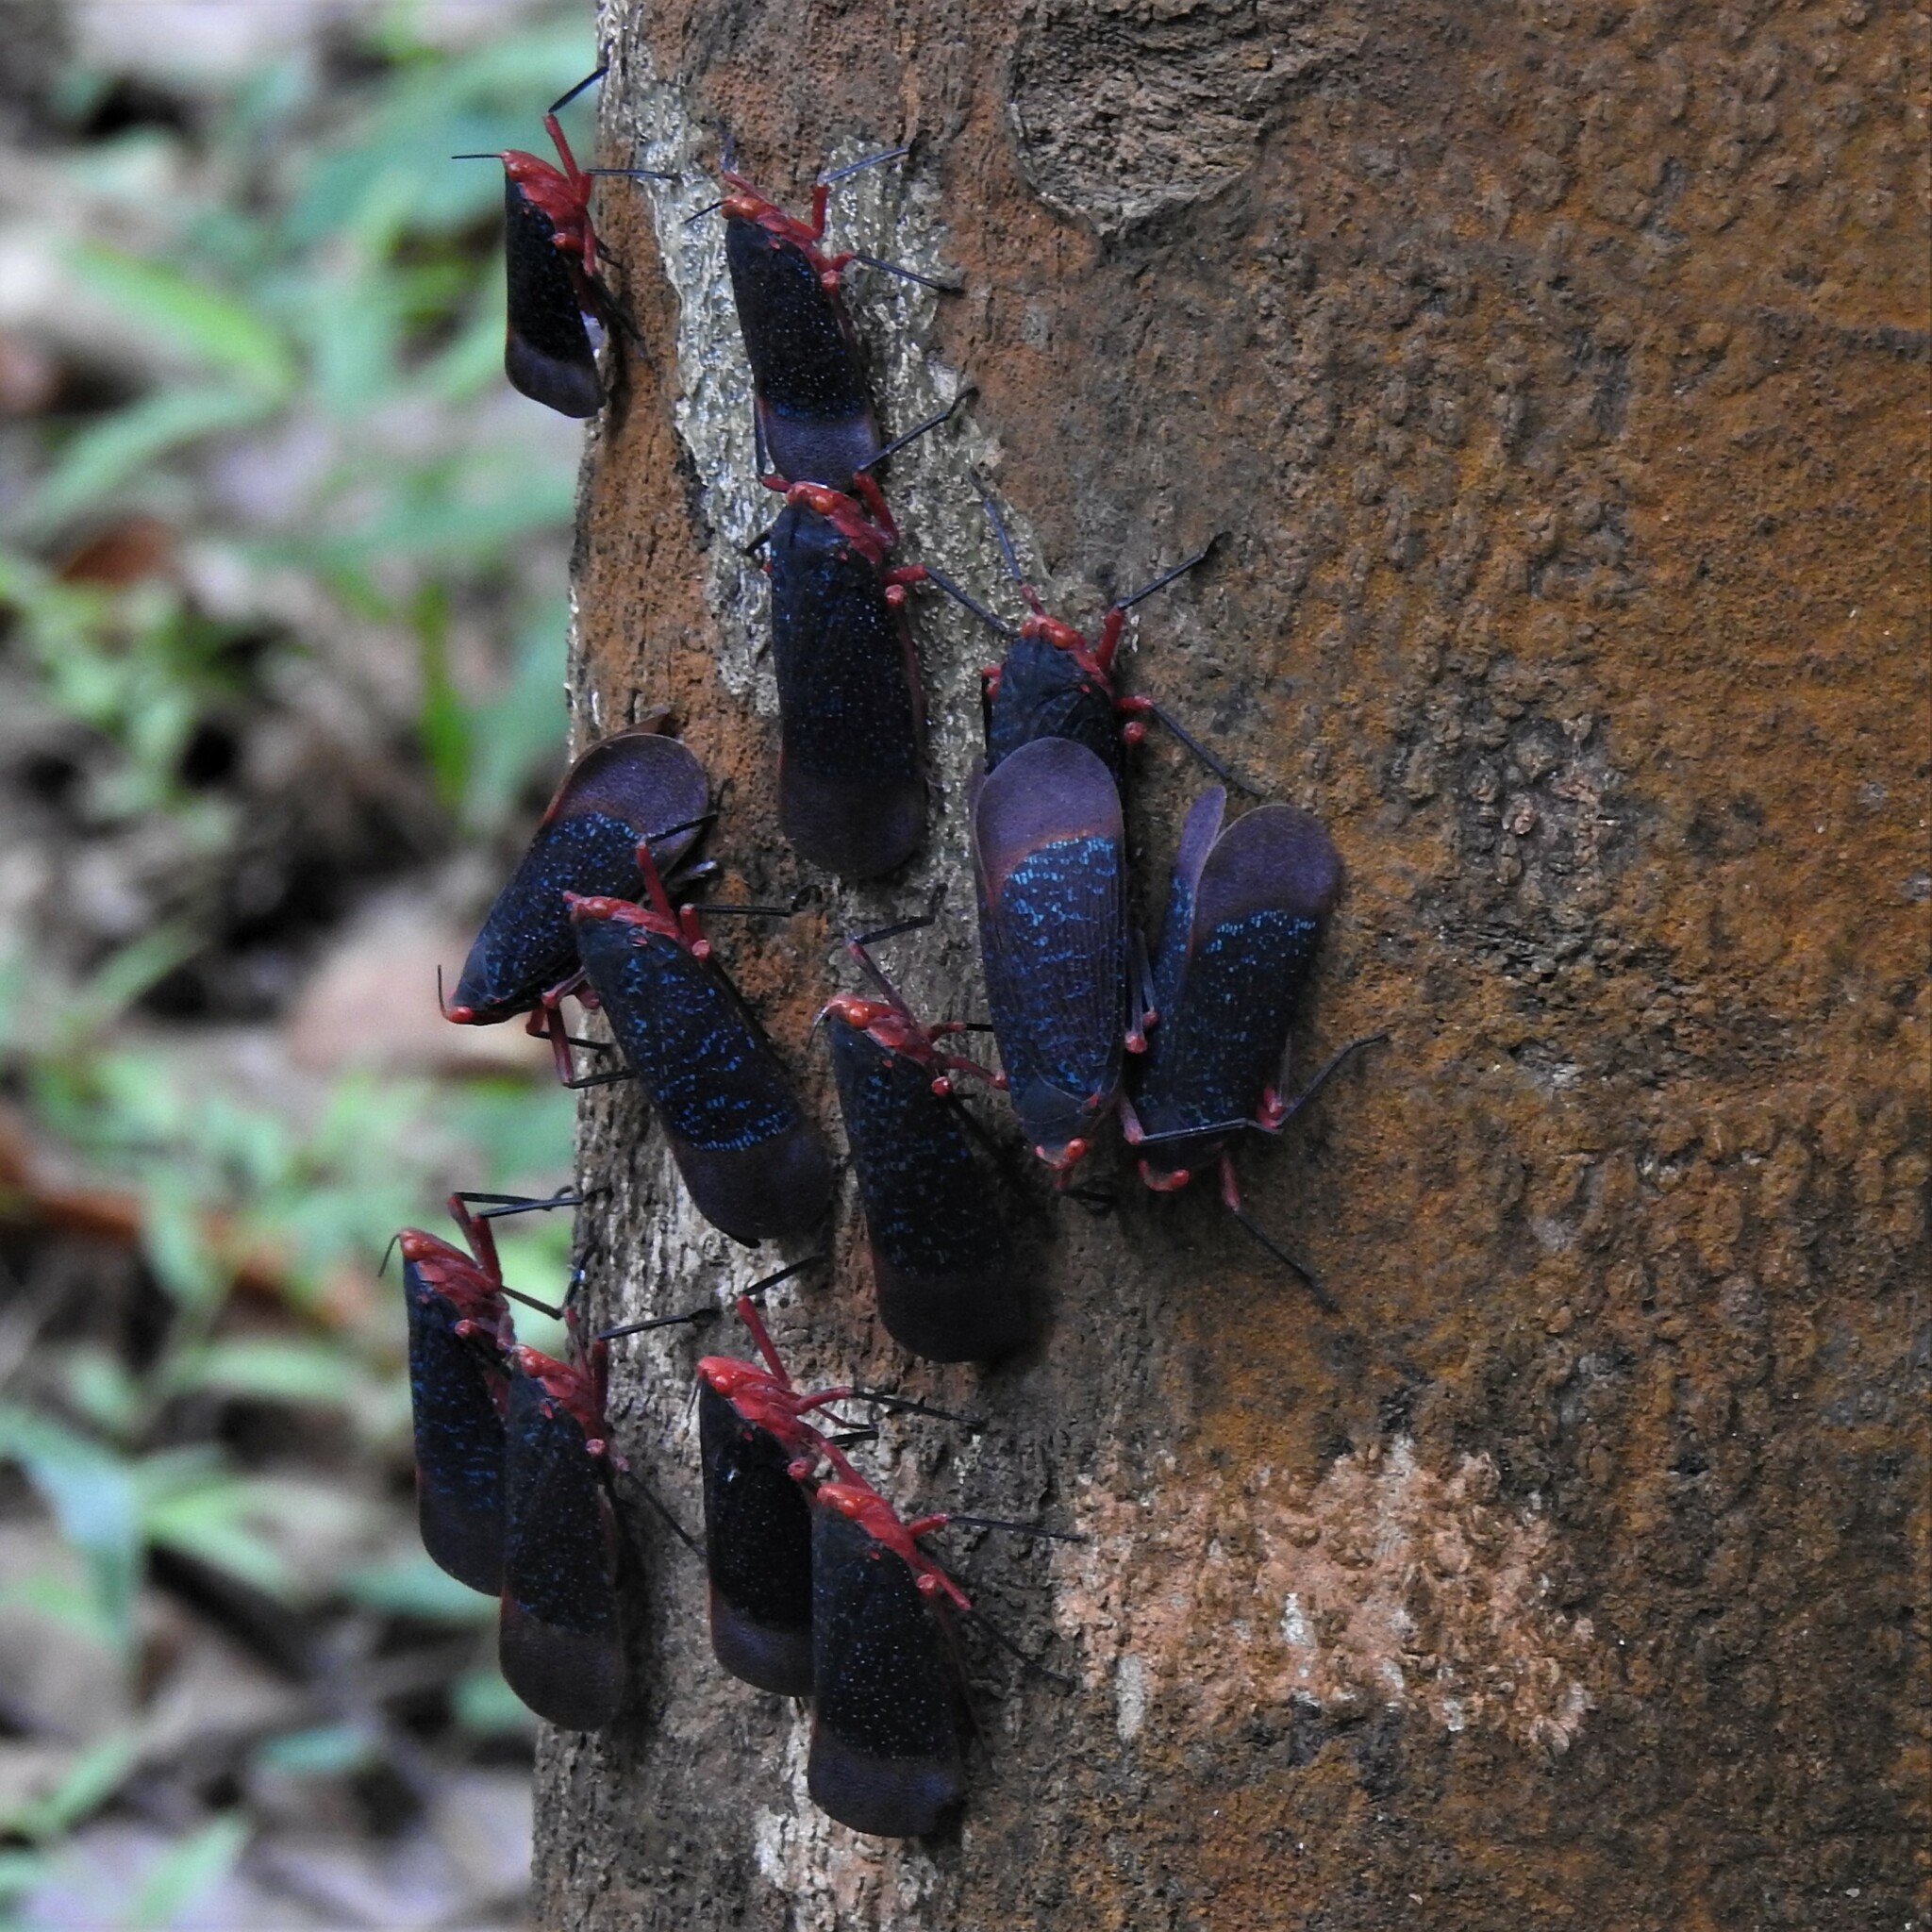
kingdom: Animalia
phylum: Arthropoda
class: Insecta
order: Hemiptera
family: Fulgoridae
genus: Kalidasa
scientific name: Kalidasa lanata
